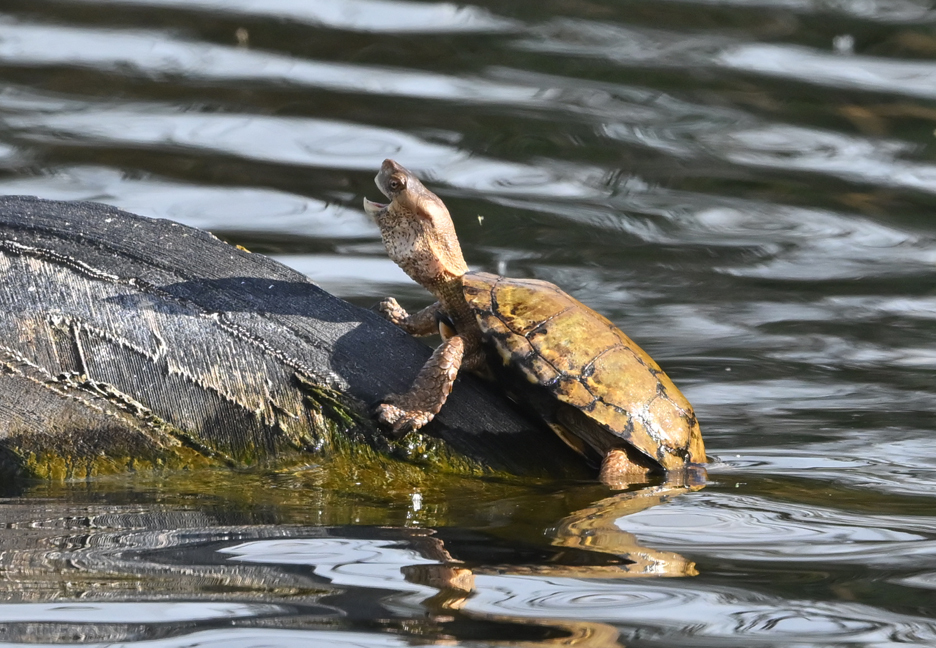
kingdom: Animalia
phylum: Chordata
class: Testudines
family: Emydidae
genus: Actinemys
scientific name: Actinemys marmorata
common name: Western pond turtle
